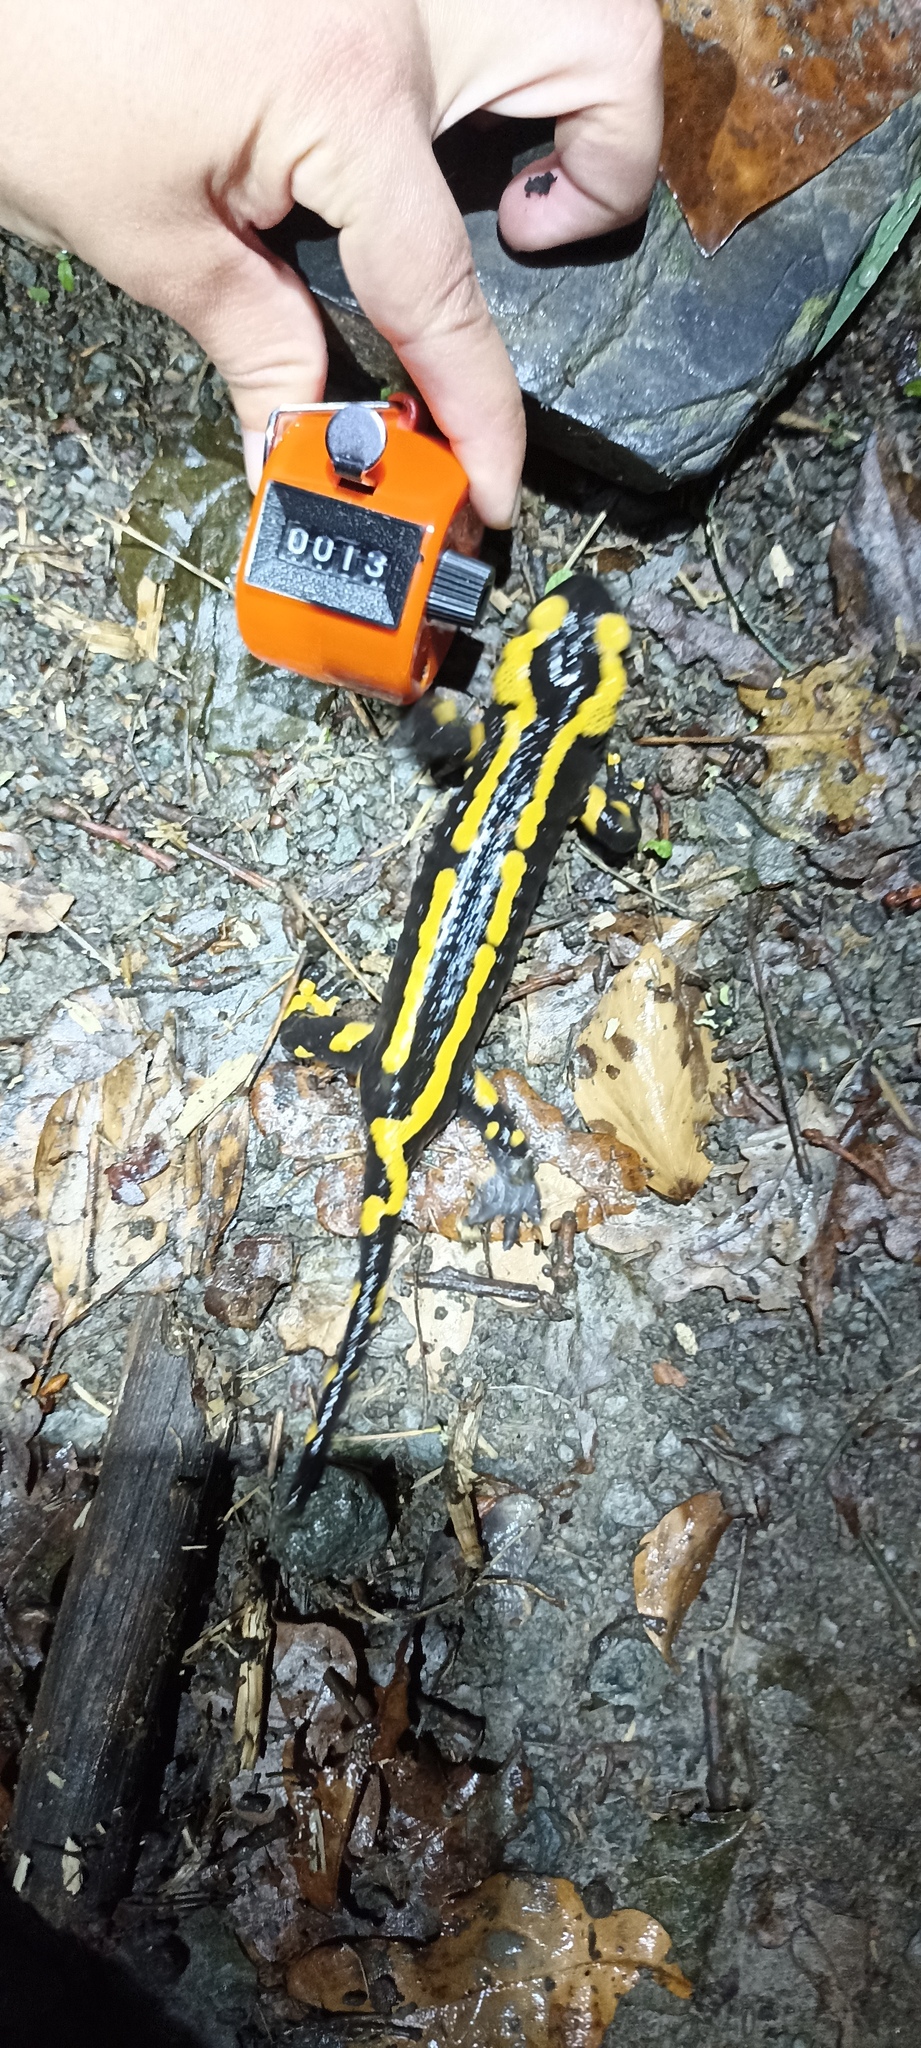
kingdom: Animalia
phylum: Chordata
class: Amphibia
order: Caudata
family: Salamandridae
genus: Salamandra
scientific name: Salamandra salamandra
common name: Fire salamander
